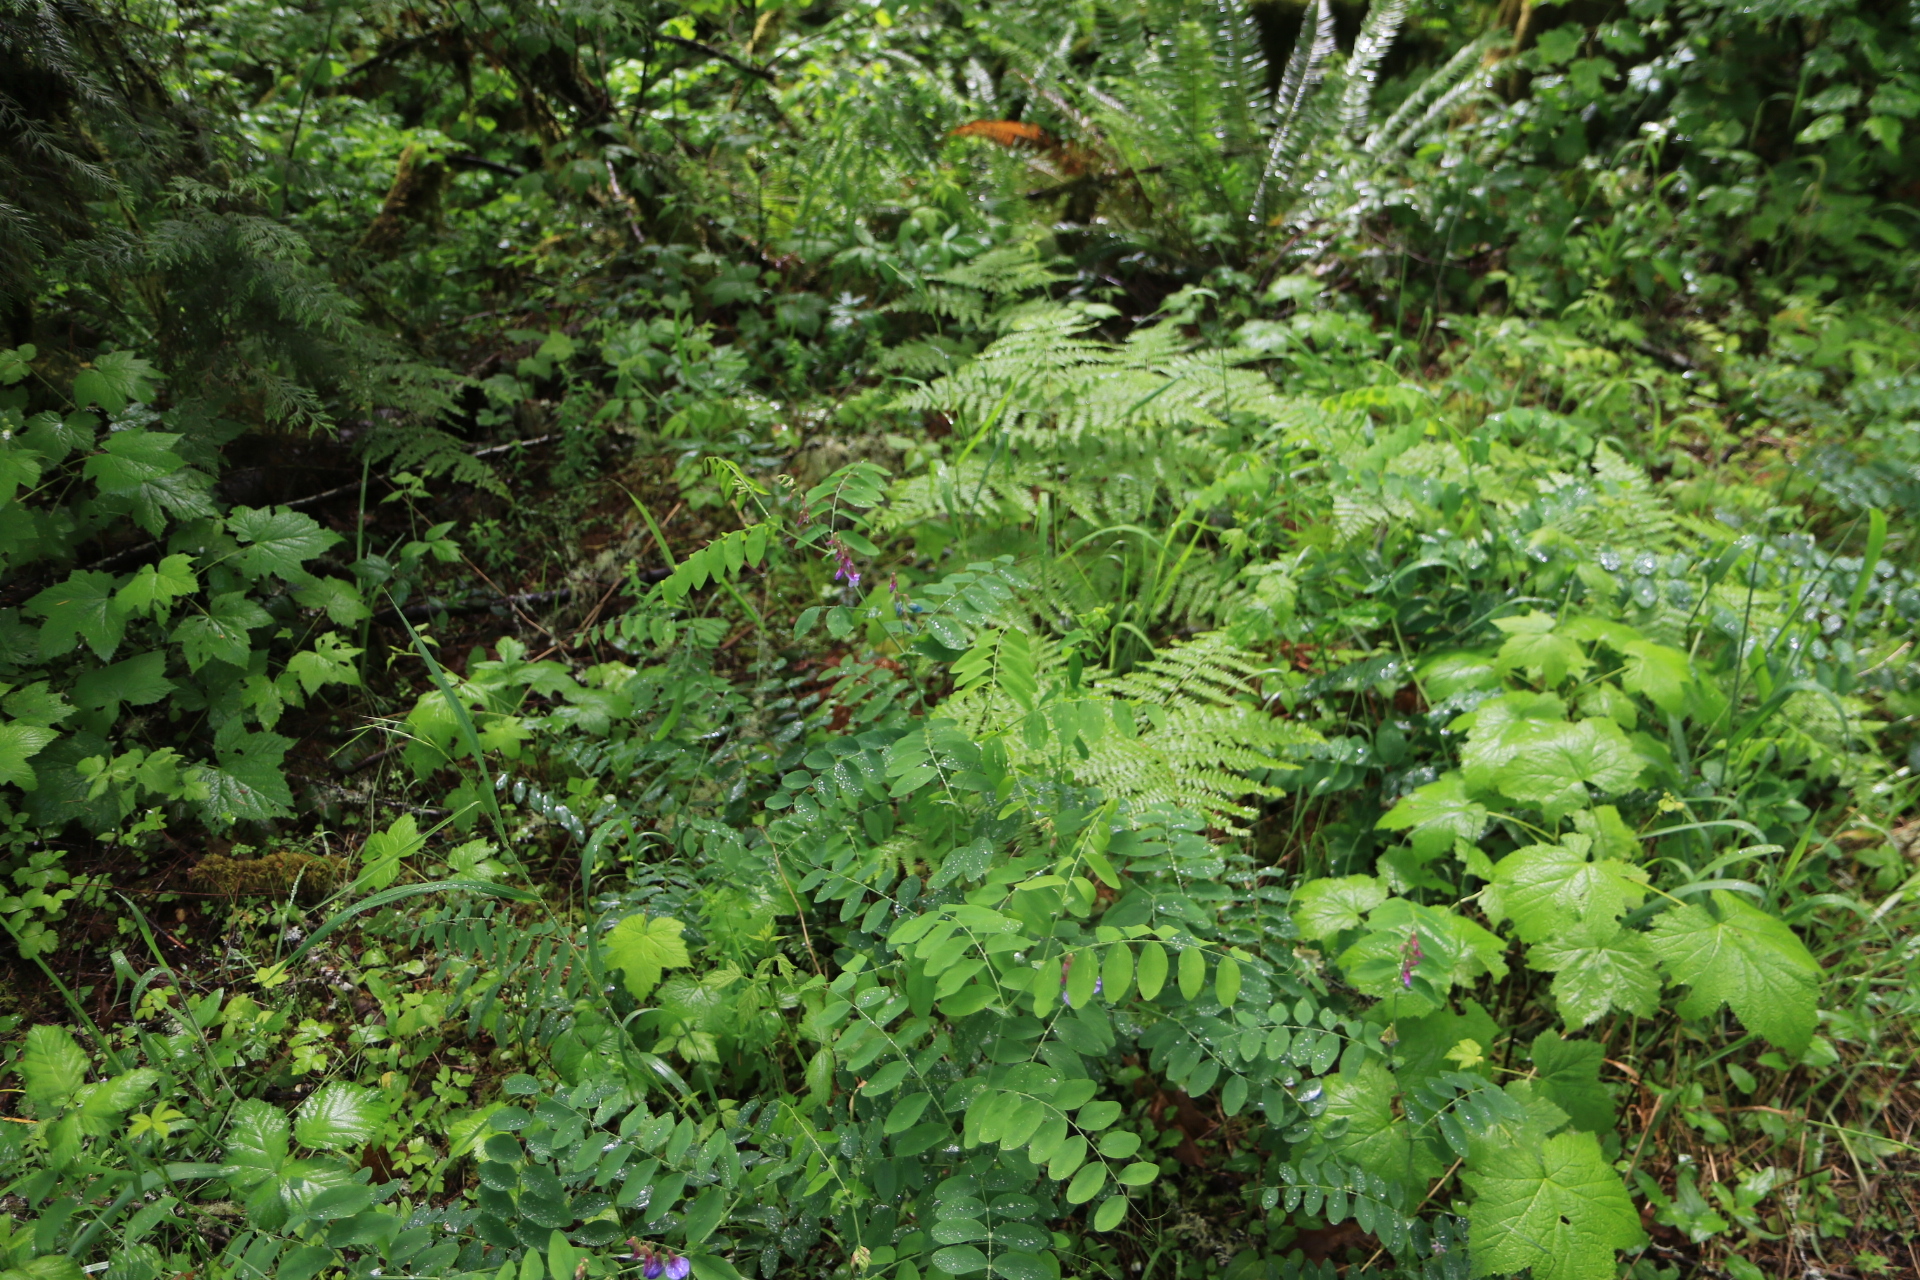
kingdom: Plantae
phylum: Tracheophyta
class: Magnoliopsida
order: Fabales
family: Fabaceae
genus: Lathyrus
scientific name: Lathyrus polyphyllus
